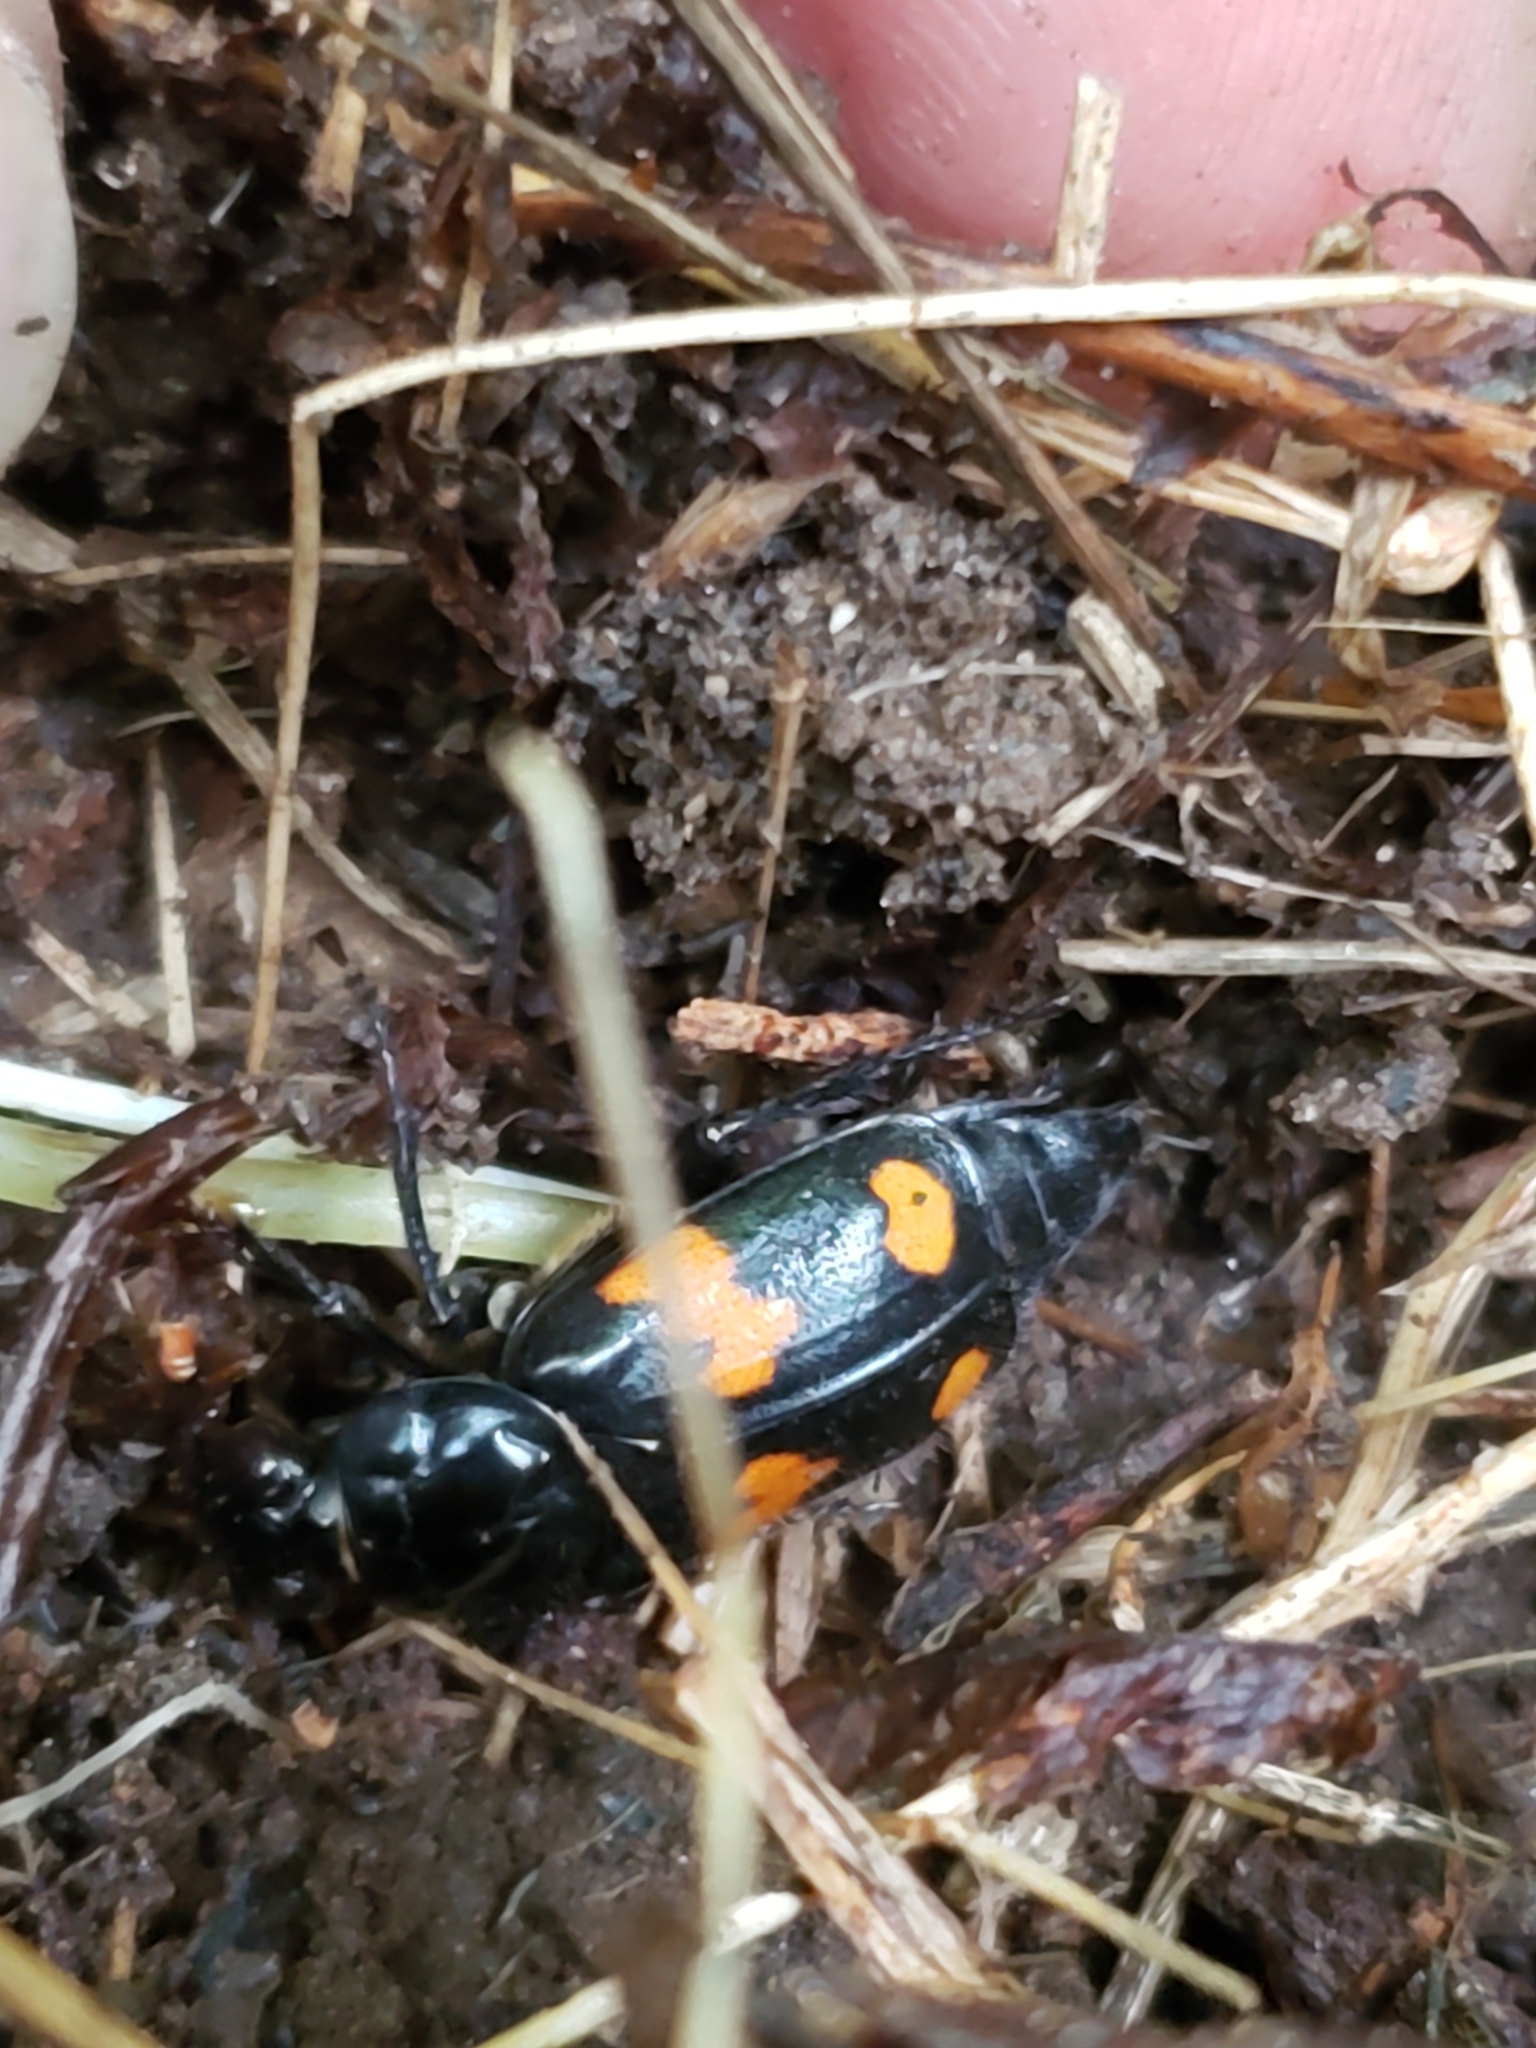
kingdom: Animalia
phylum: Arthropoda
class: Insecta
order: Coleoptera
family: Staphylinidae
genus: Nicrophorus
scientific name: Nicrophorus orbicollis
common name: Roundneck sexton beetle
